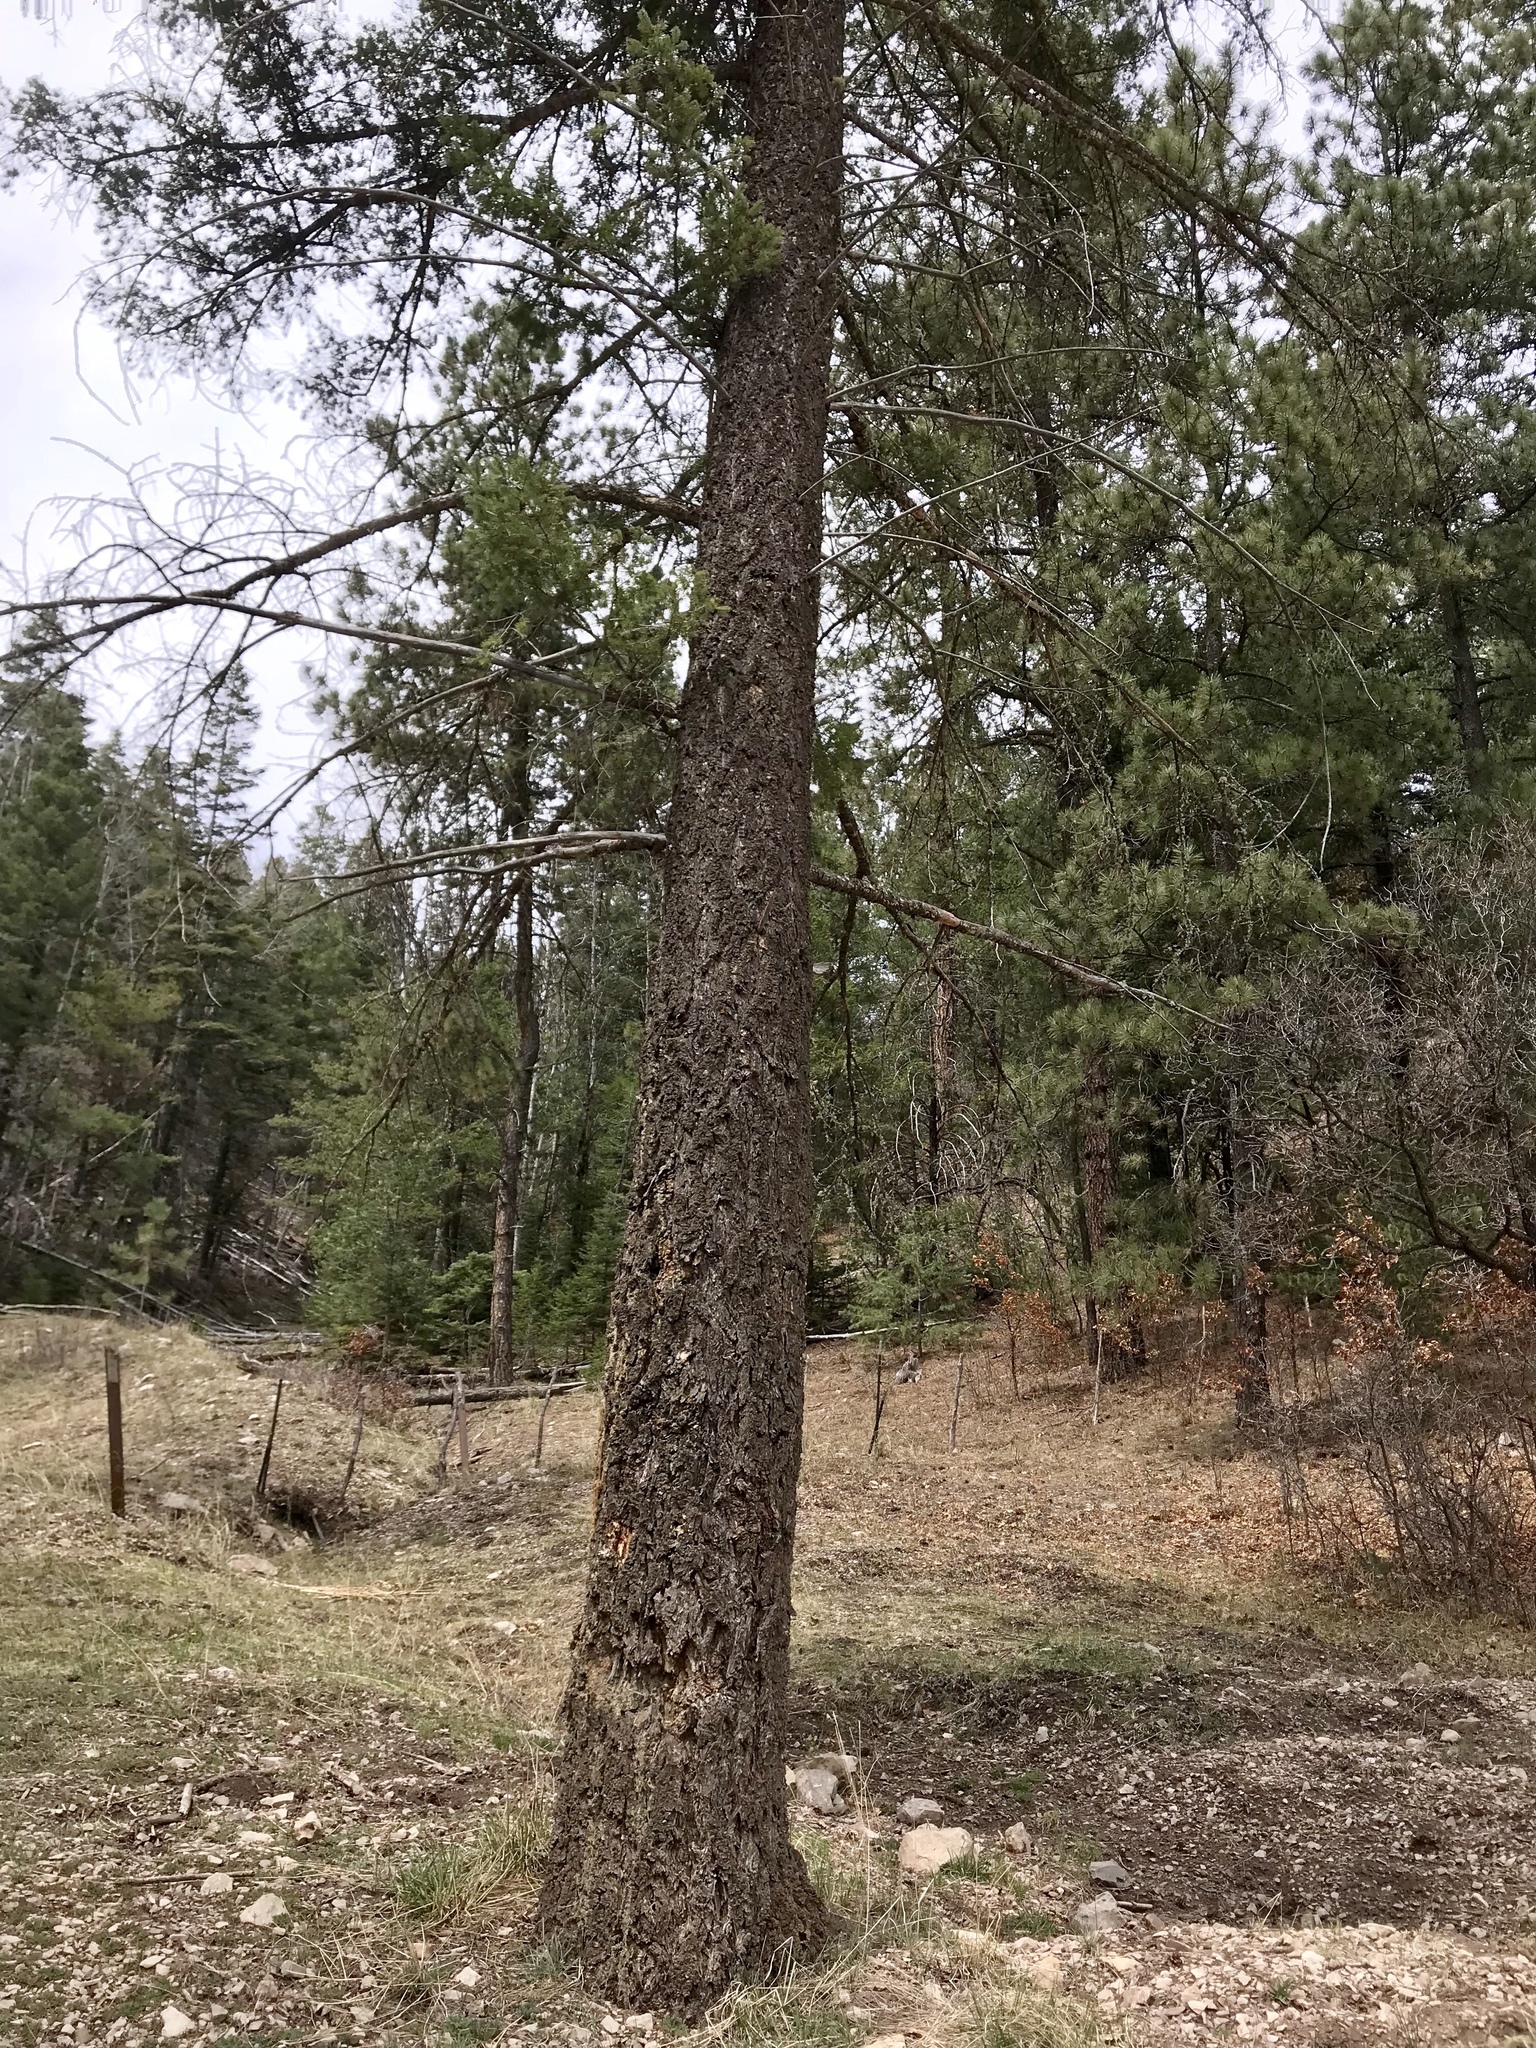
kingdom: Plantae
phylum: Tracheophyta
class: Pinopsida
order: Pinales
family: Pinaceae
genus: Pseudotsuga
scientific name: Pseudotsuga menziesii
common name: Douglas fir
